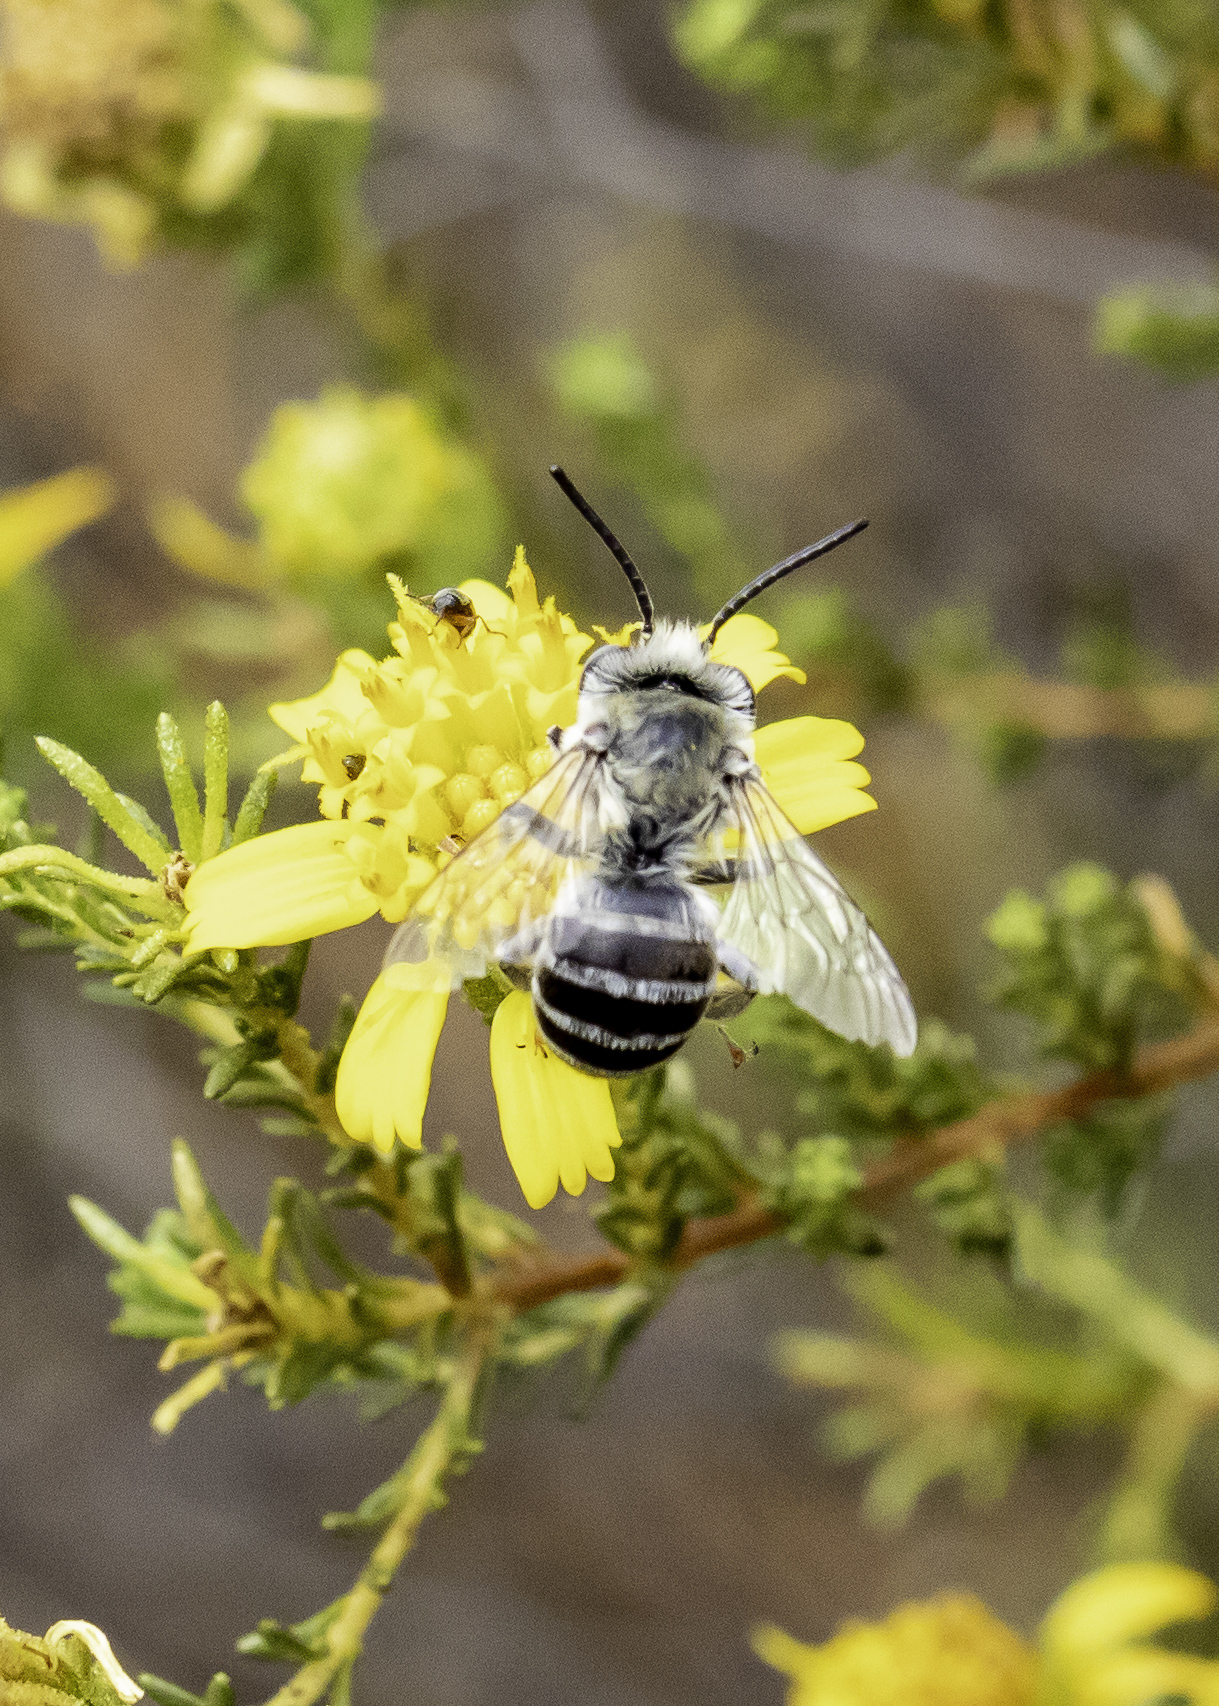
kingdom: Animalia
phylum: Arthropoda
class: Insecta
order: Hymenoptera
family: Apidae
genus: Anthophora
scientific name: Anthophora urbana
